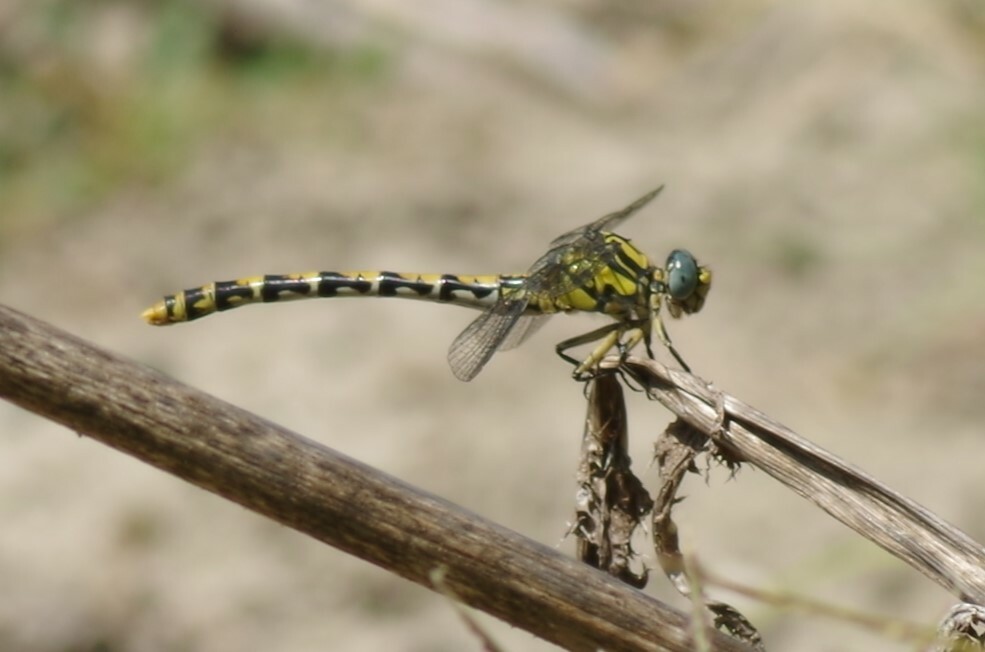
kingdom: Animalia
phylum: Arthropoda
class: Insecta
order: Odonata
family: Gomphidae
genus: Onychogomphus
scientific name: Onychogomphus uncatus
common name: Large pincertail
